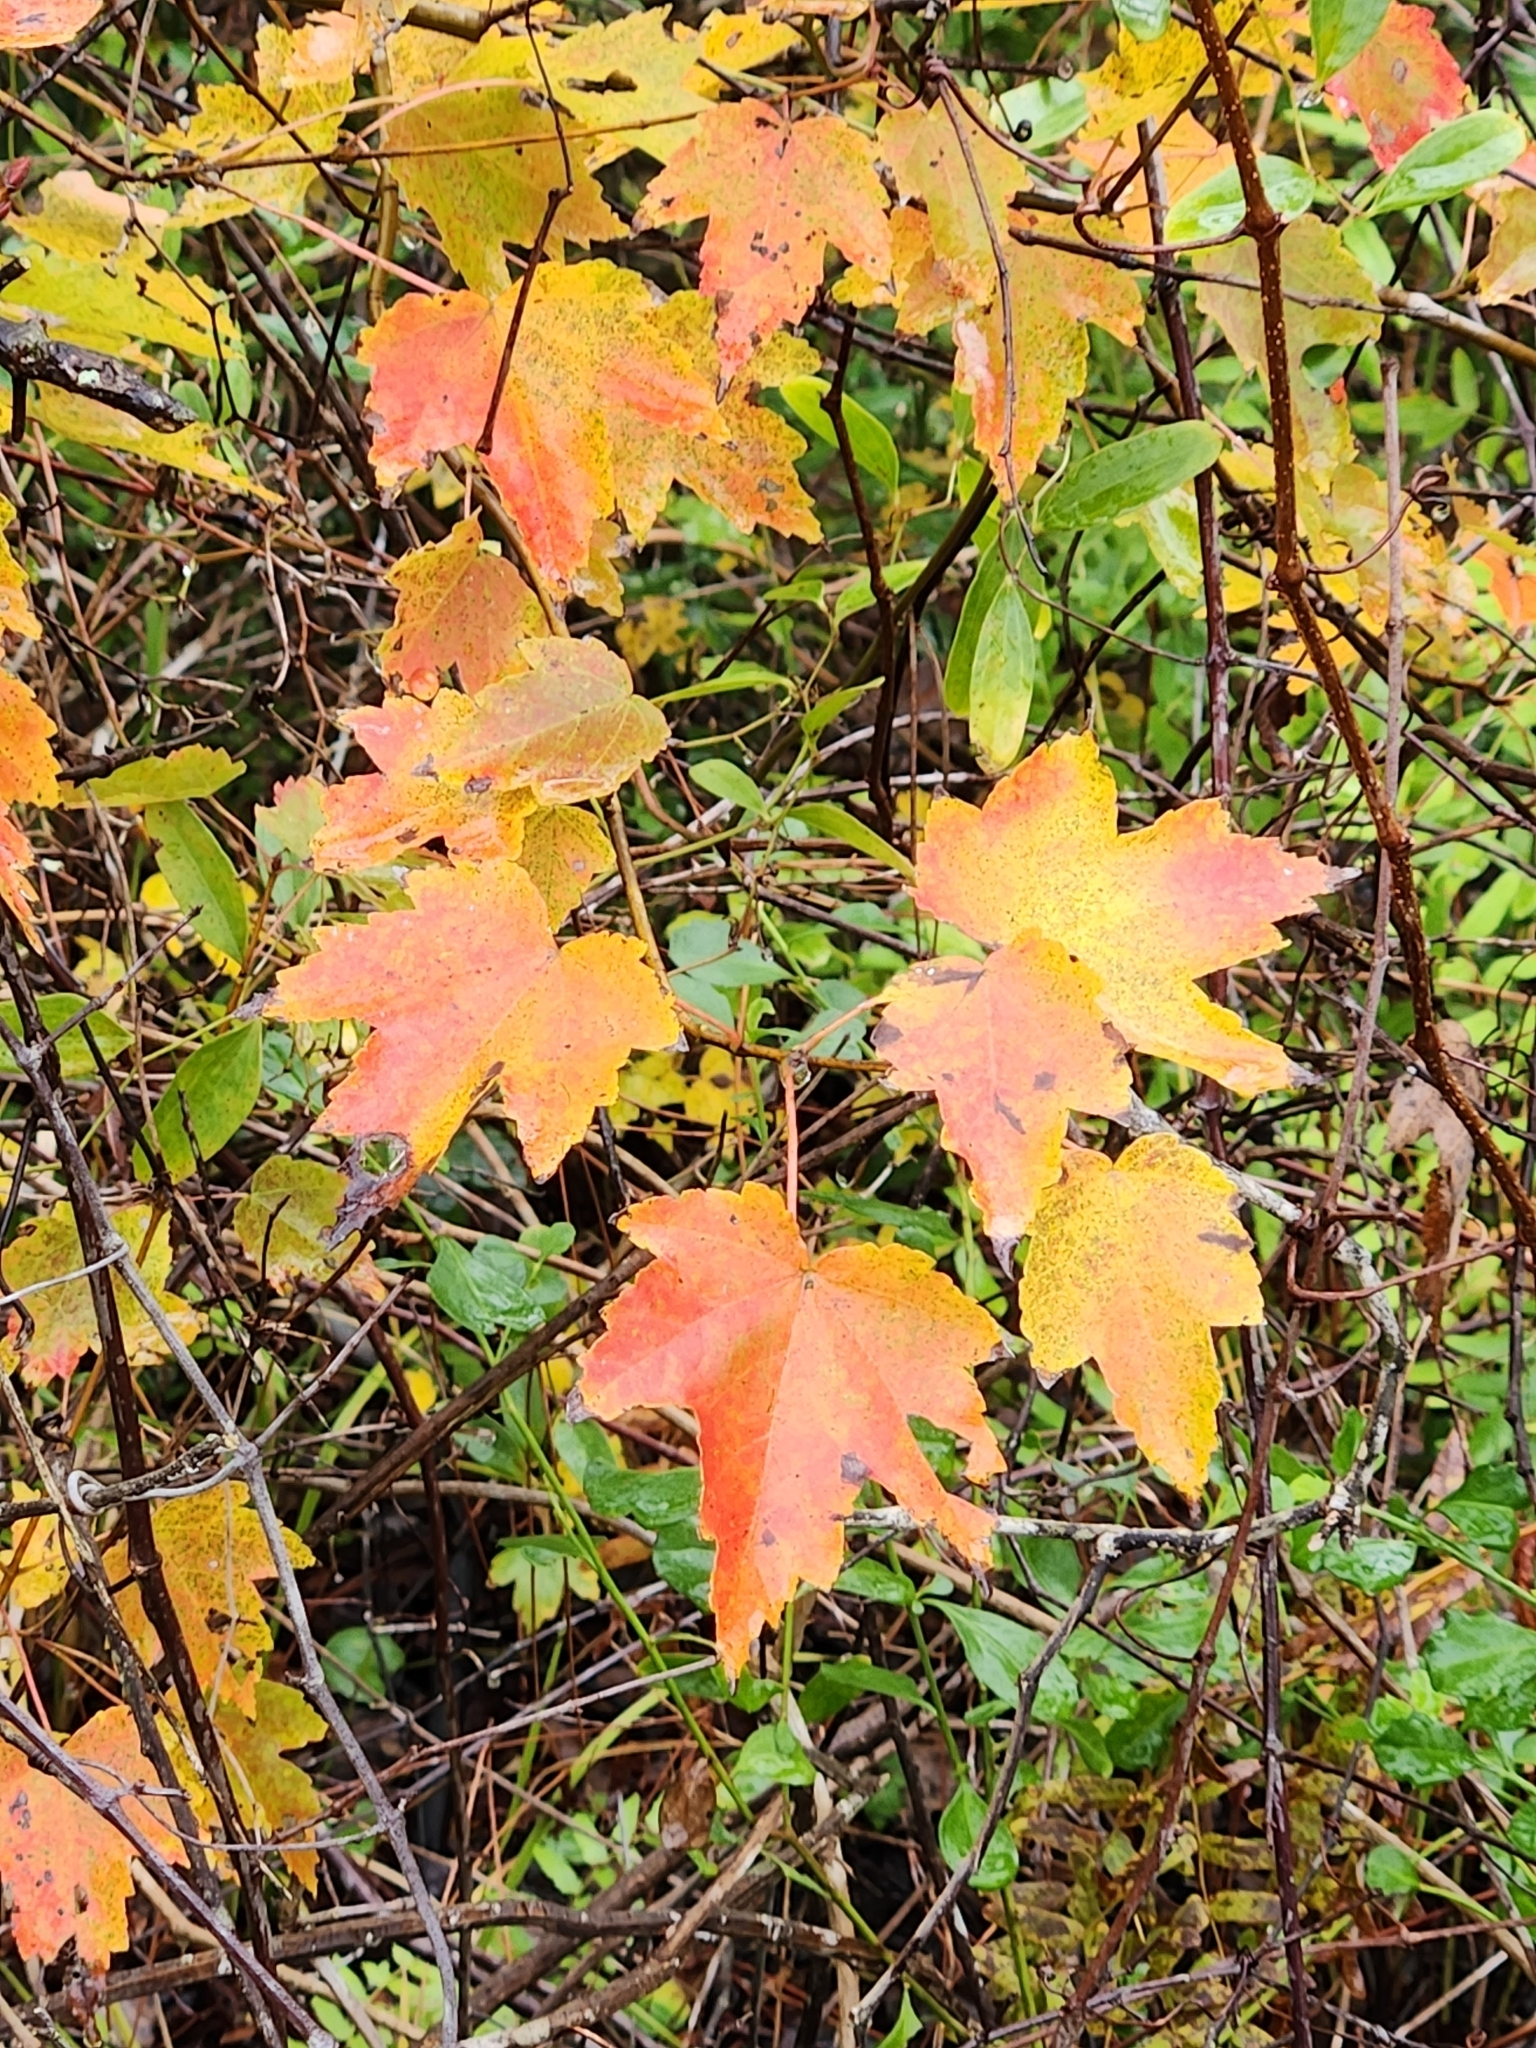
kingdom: Plantae
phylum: Tracheophyta
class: Magnoliopsida
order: Sapindales
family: Sapindaceae
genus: Acer
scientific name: Acer rubrum
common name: Red maple
